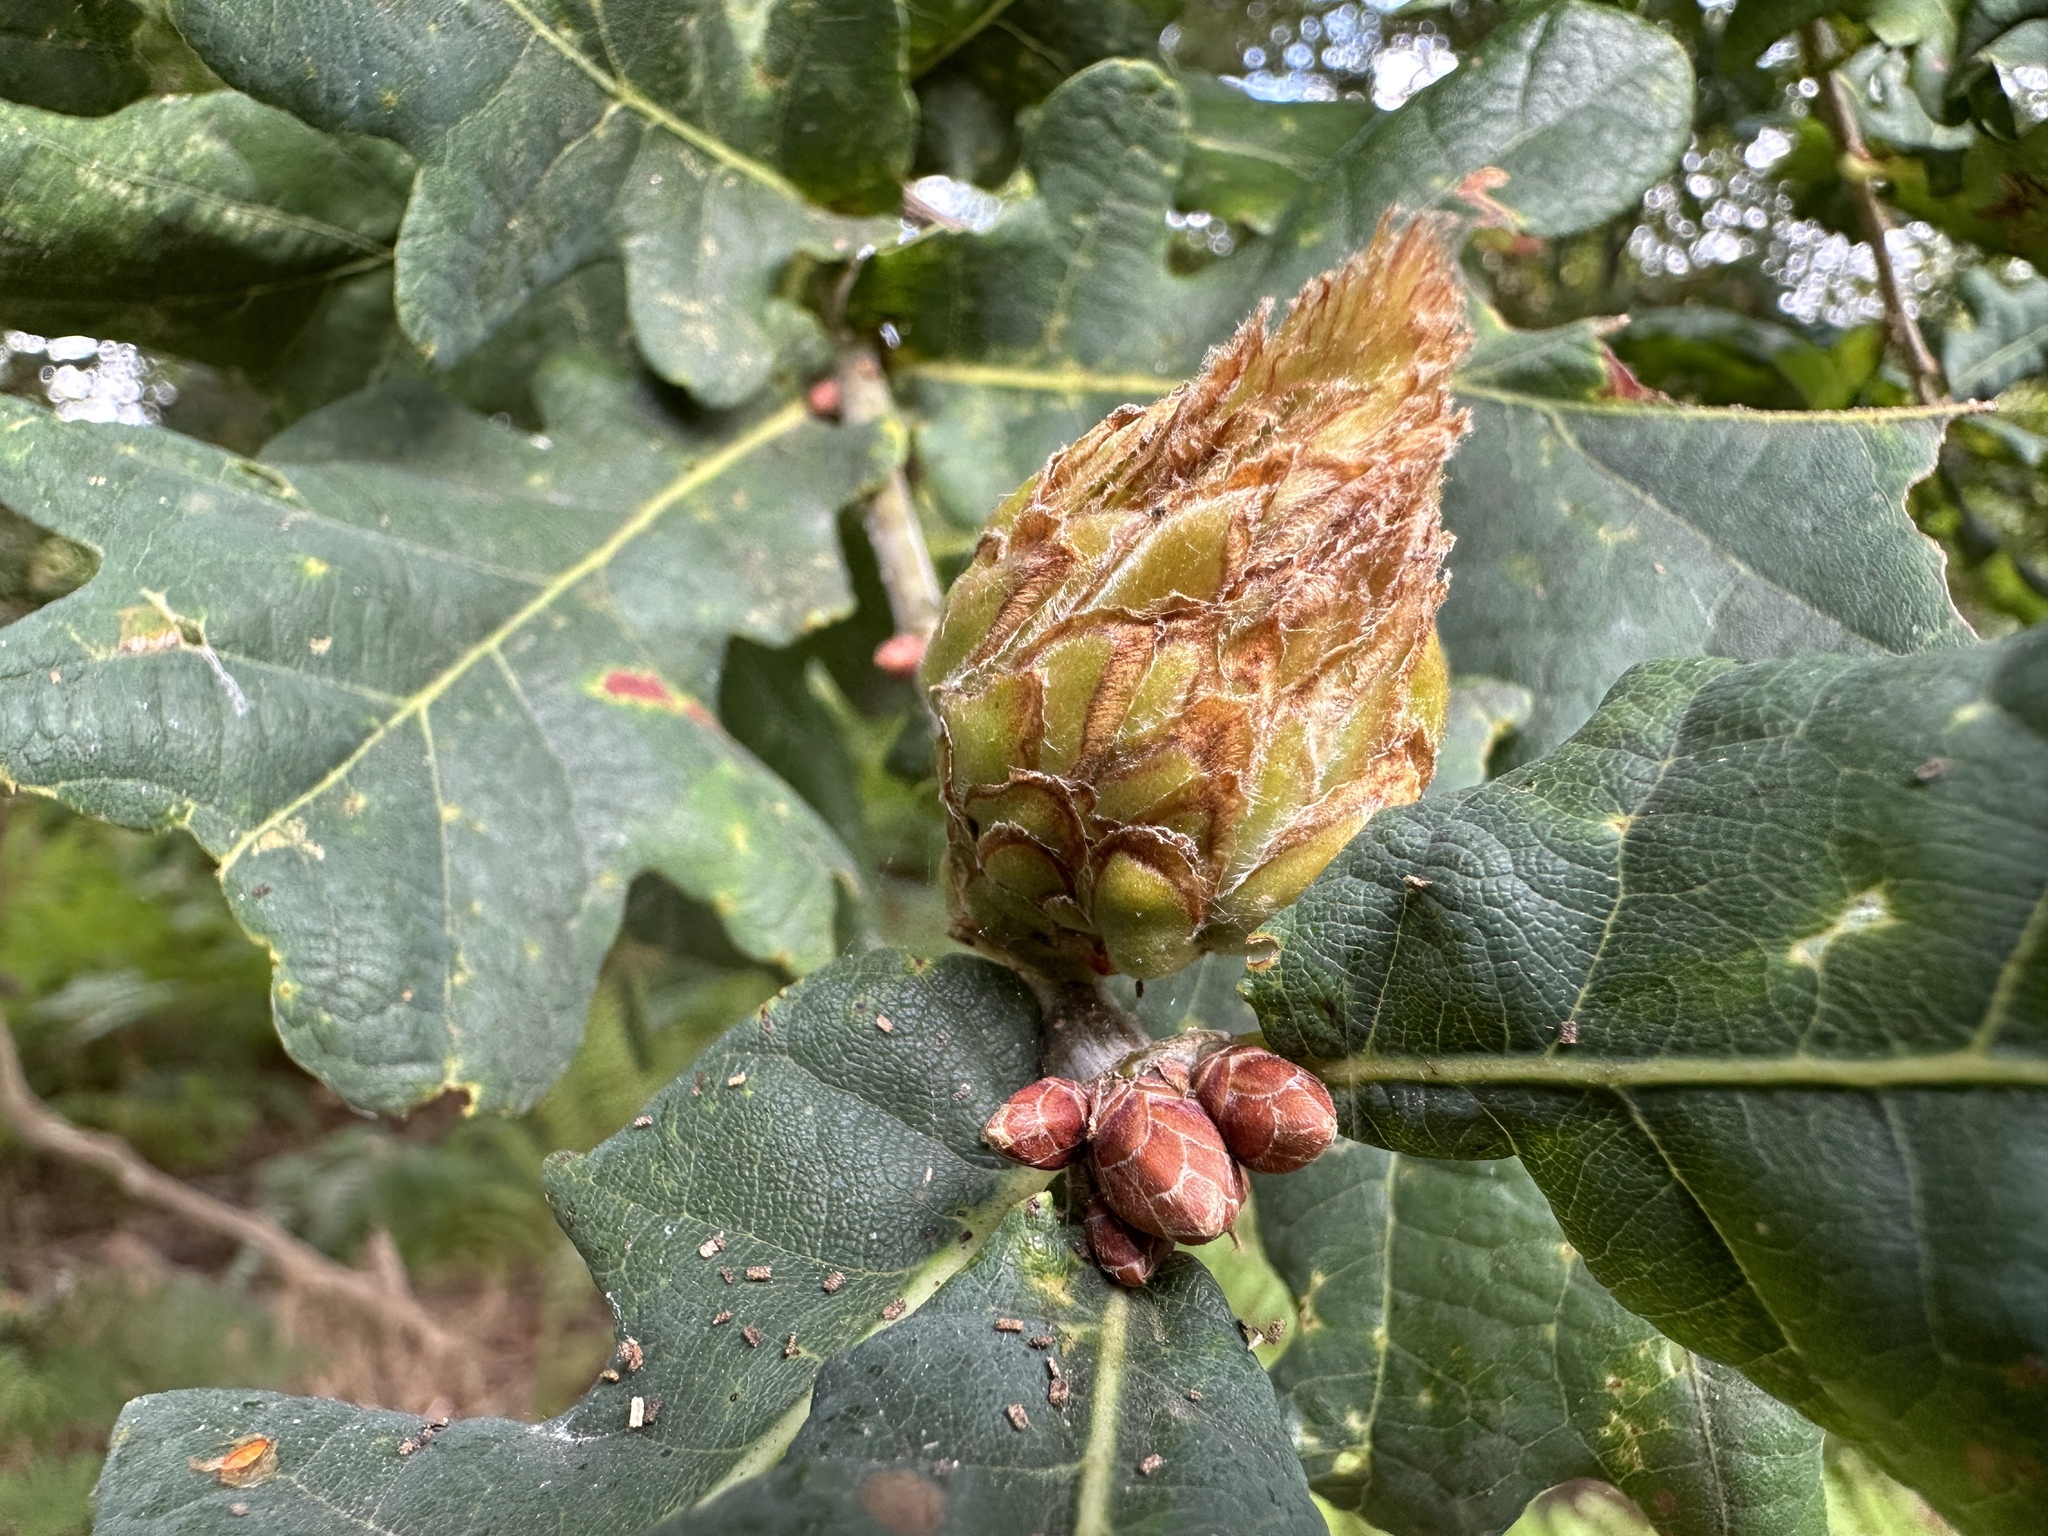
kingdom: Animalia
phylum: Arthropoda
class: Insecta
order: Hymenoptera
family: Cynipidae
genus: Andricus
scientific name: Andricus foecundatrix
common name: Artichoke gall
